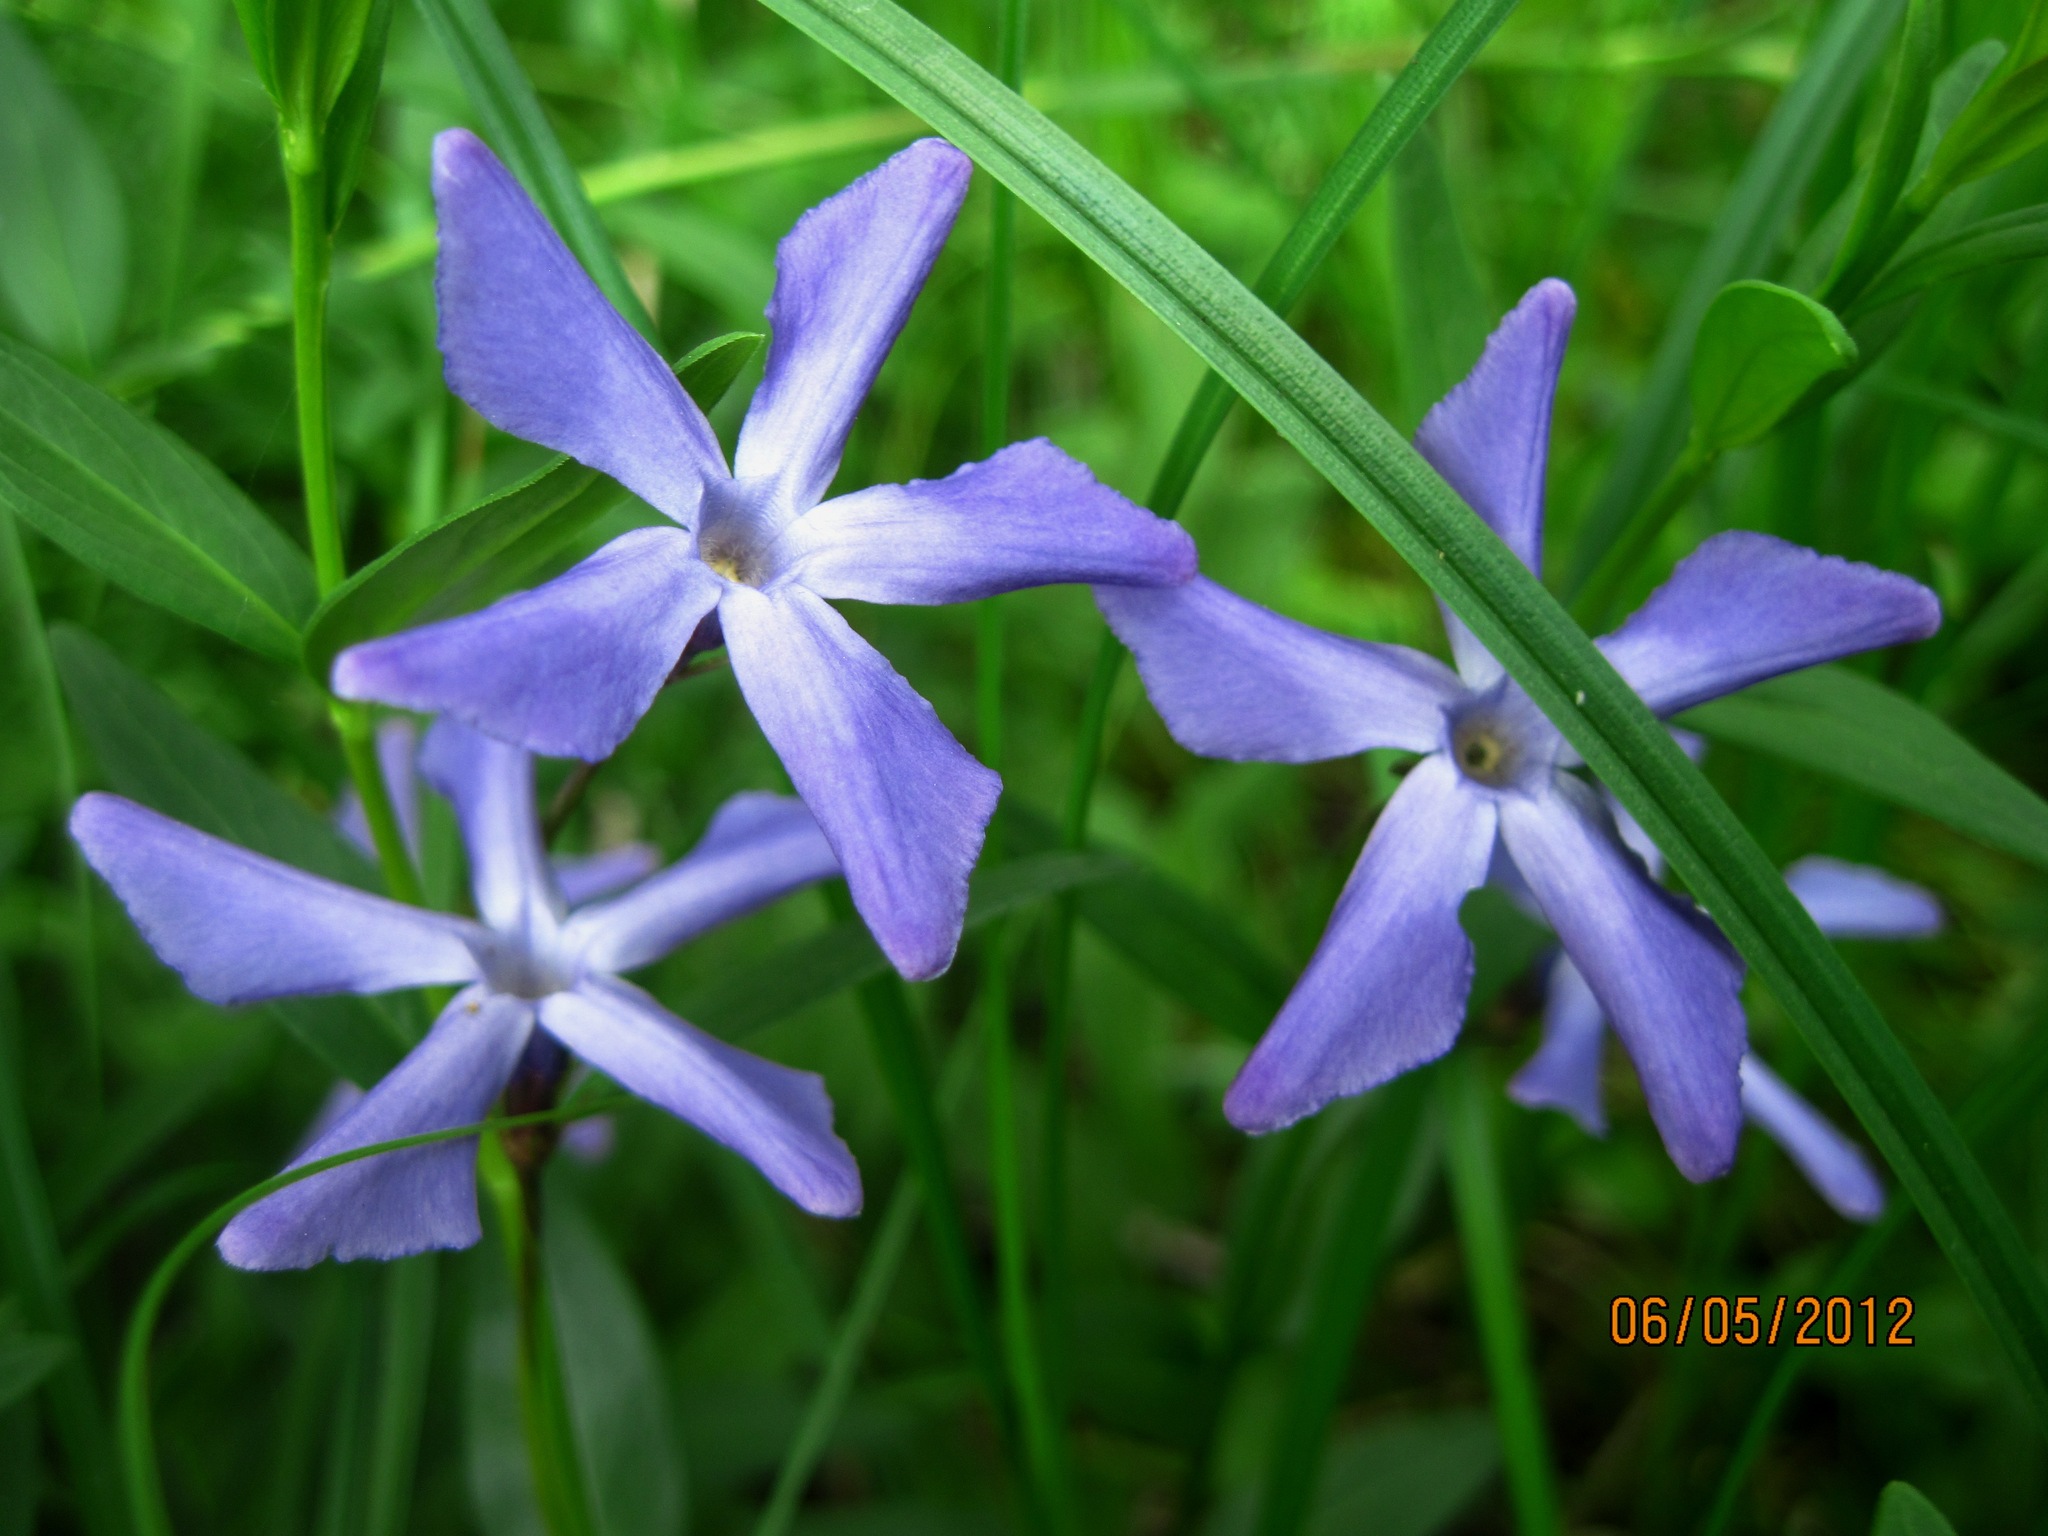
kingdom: Plantae
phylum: Tracheophyta
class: Magnoliopsida
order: Gentianales
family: Apocynaceae
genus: Vinca
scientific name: Vinca herbacea
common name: Herbaceous periwinkle
